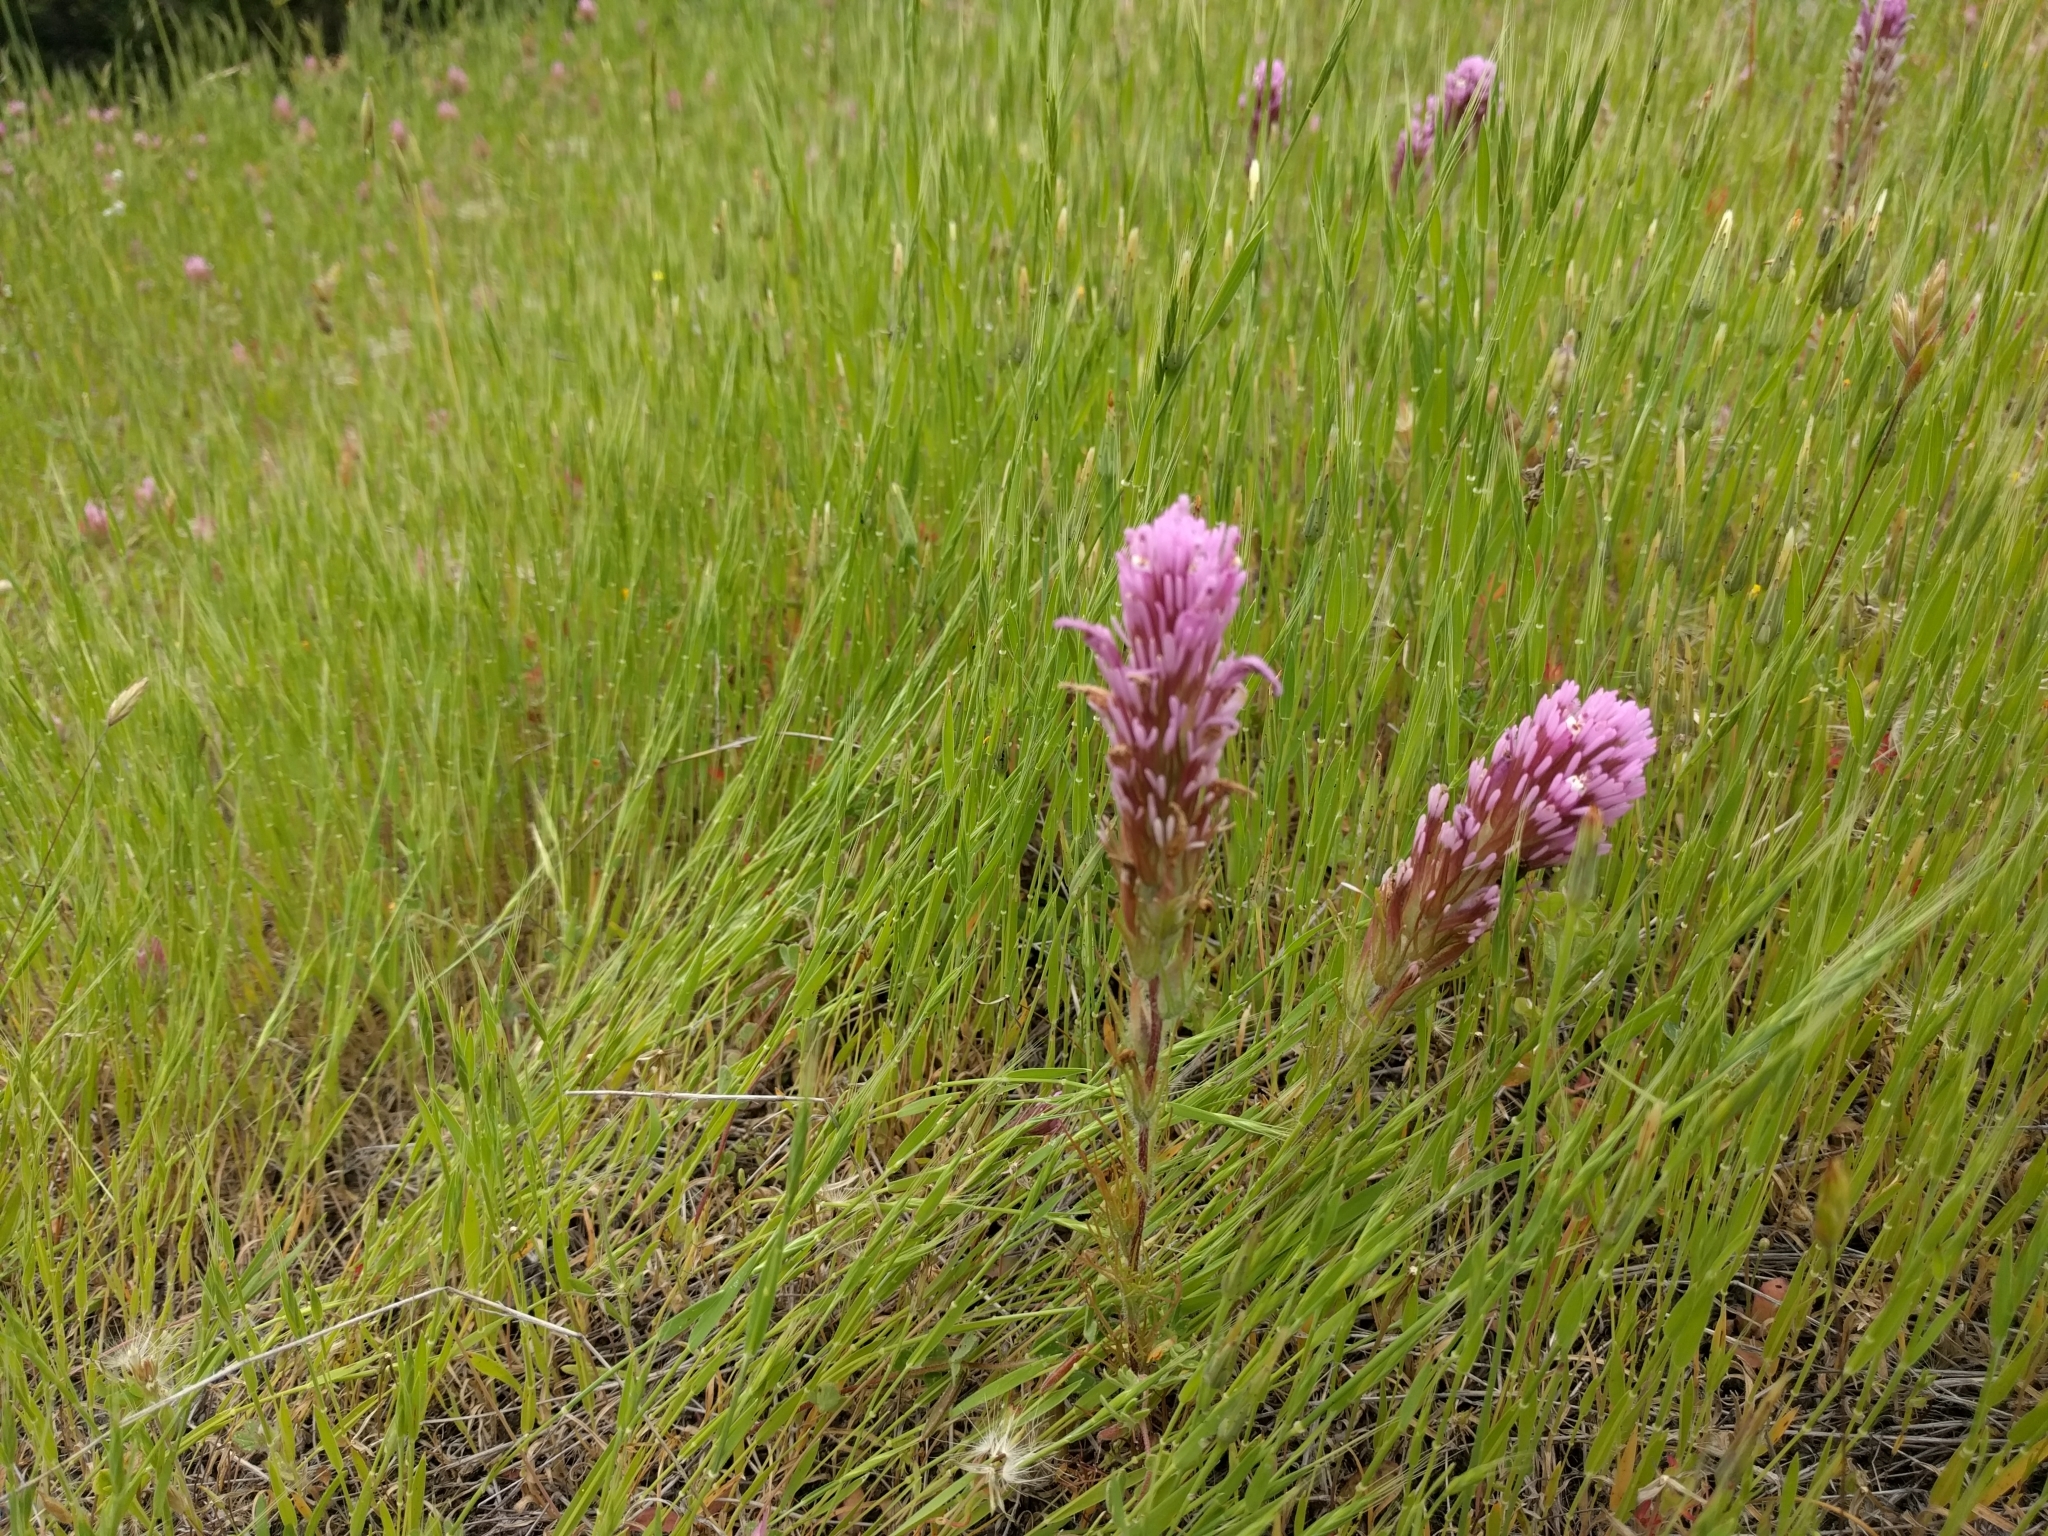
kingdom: Plantae
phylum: Tracheophyta
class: Magnoliopsida
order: Lamiales
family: Orobanchaceae
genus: Castilleja
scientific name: Castilleja exserta
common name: Purple owl-clover
